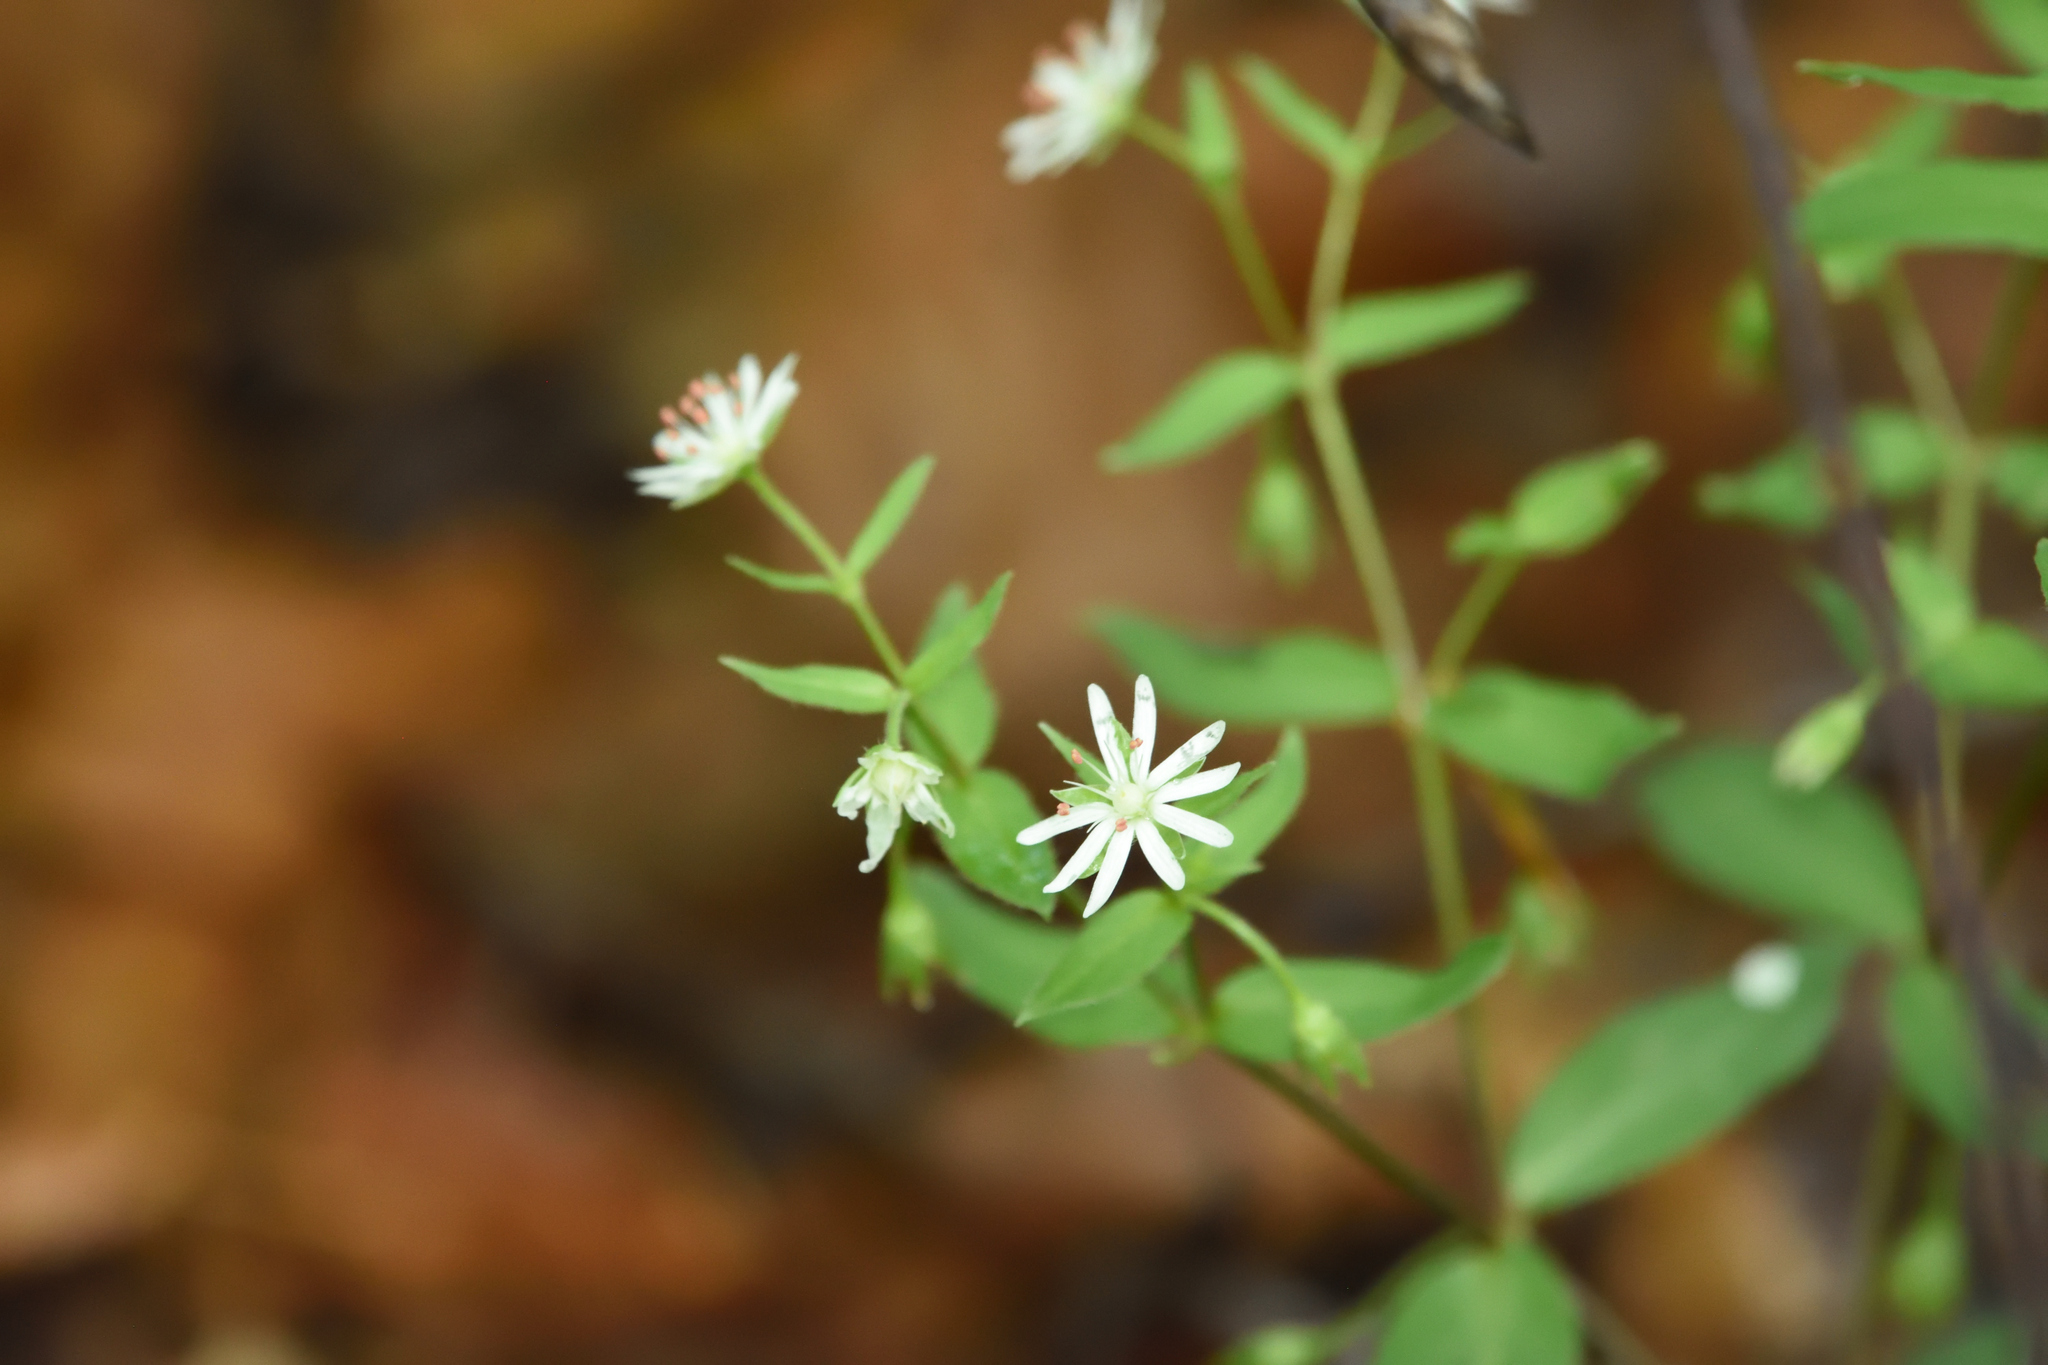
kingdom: Plantae
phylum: Tracheophyta
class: Magnoliopsida
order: Caryophyllales
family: Caryophyllaceae
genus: Stellaria
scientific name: Stellaria pubera
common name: Star chickweed
